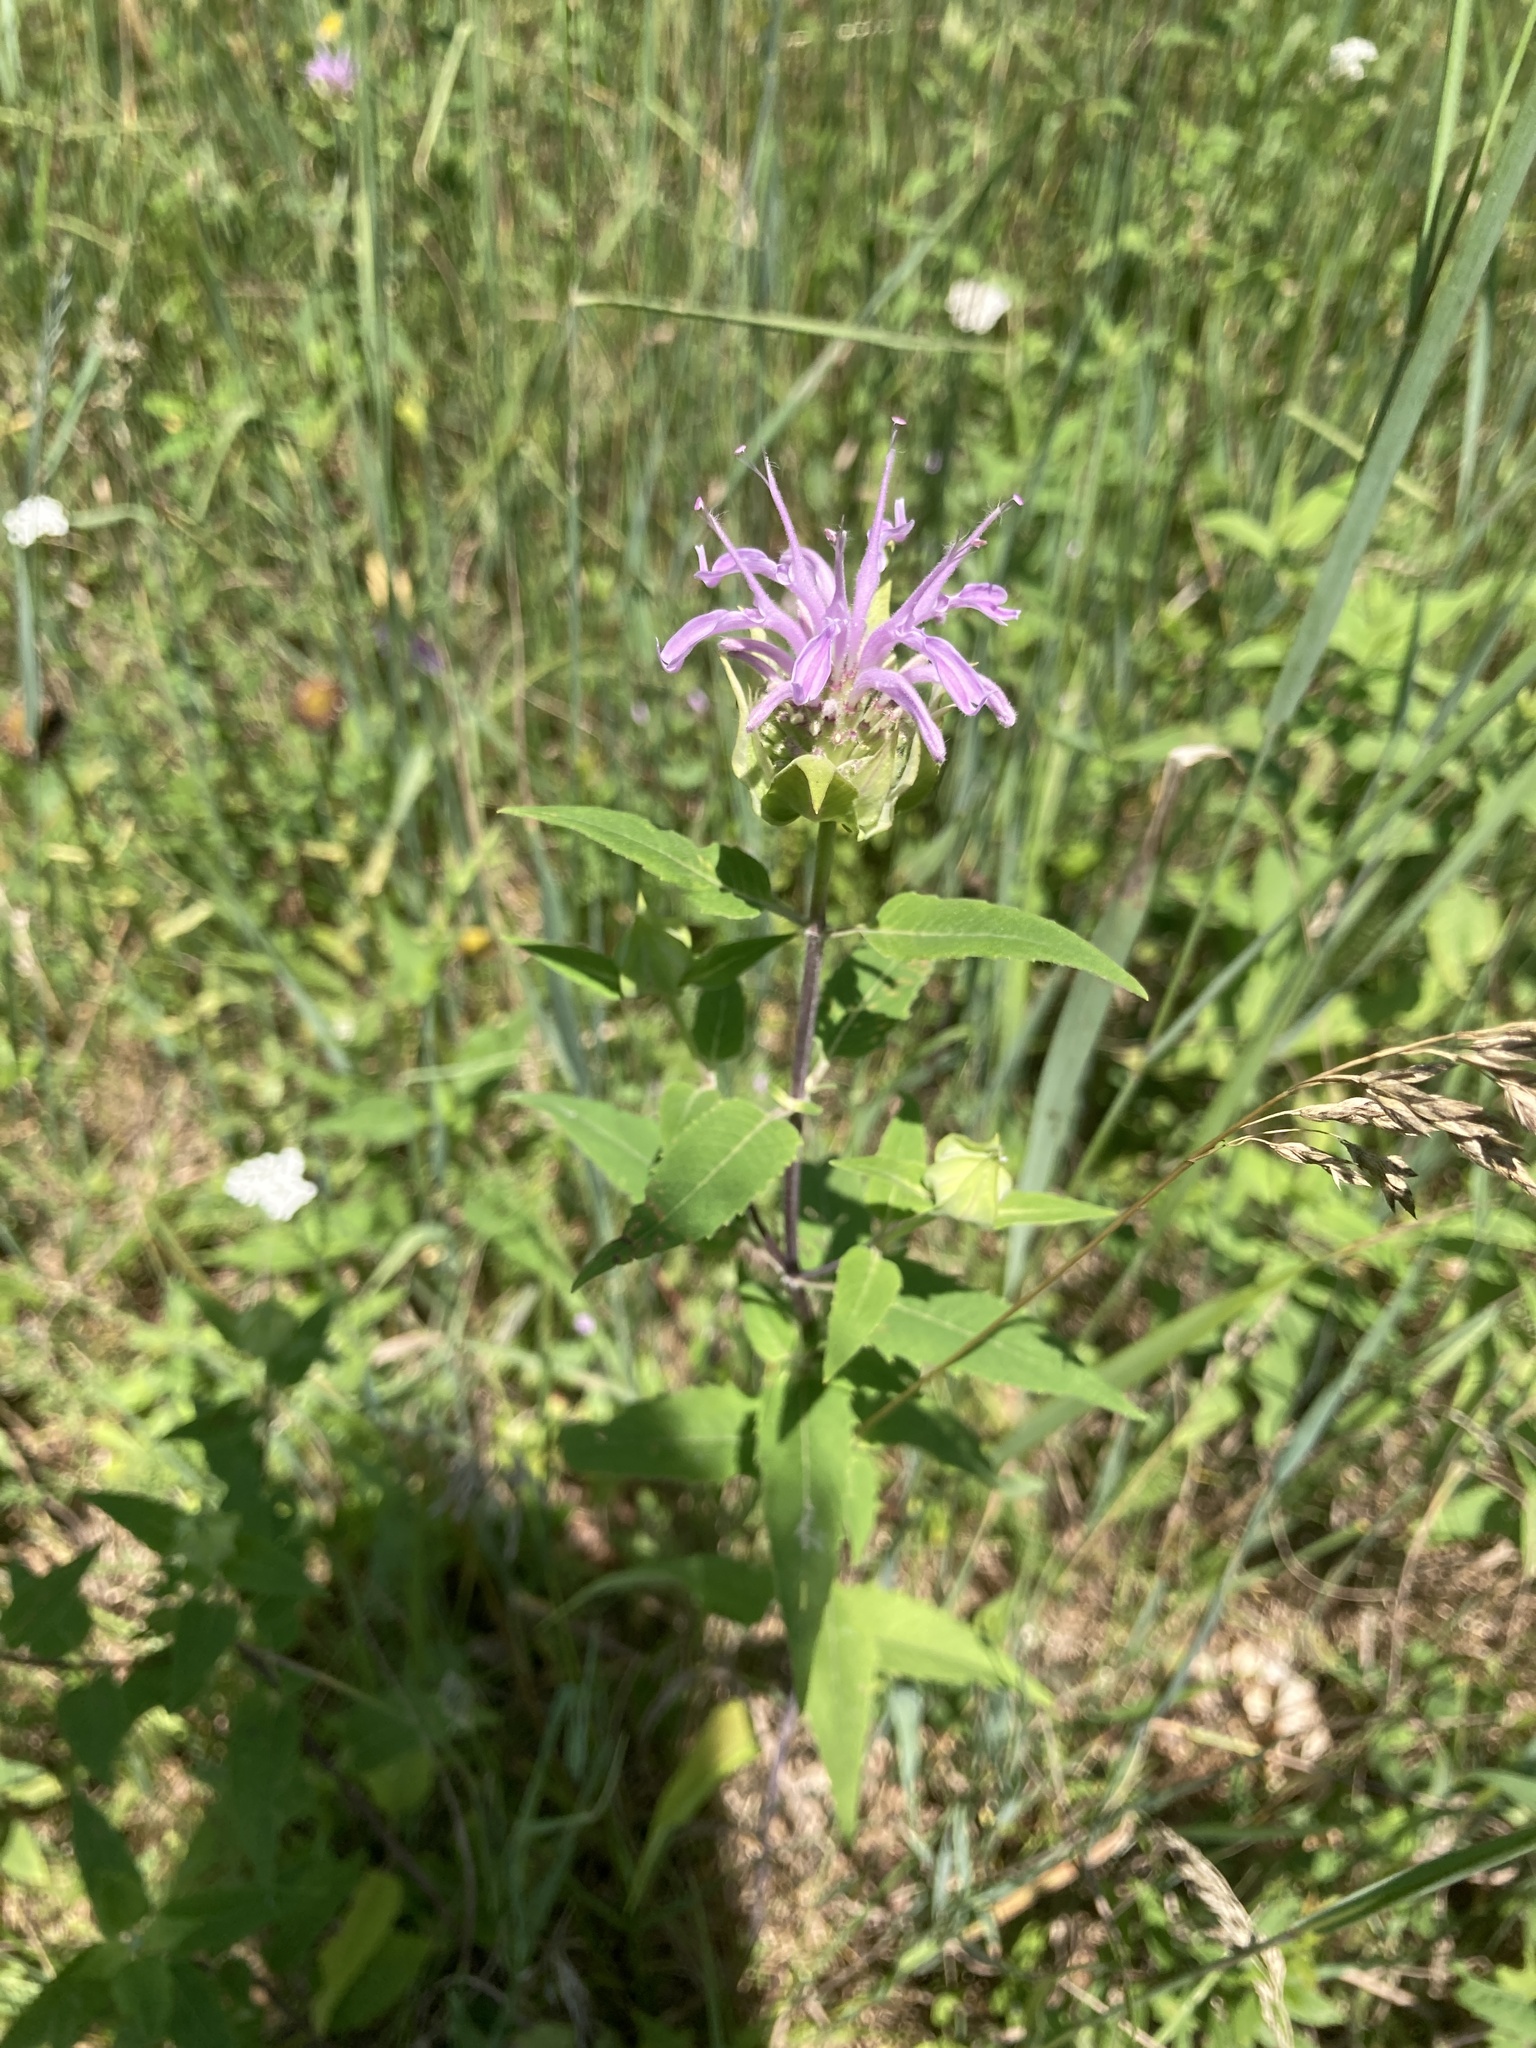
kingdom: Plantae
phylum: Tracheophyta
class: Magnoliopsida
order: Lamiales
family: Lamiaceae
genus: Monarda
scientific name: Monarda fistulosa
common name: Purple beebalm
